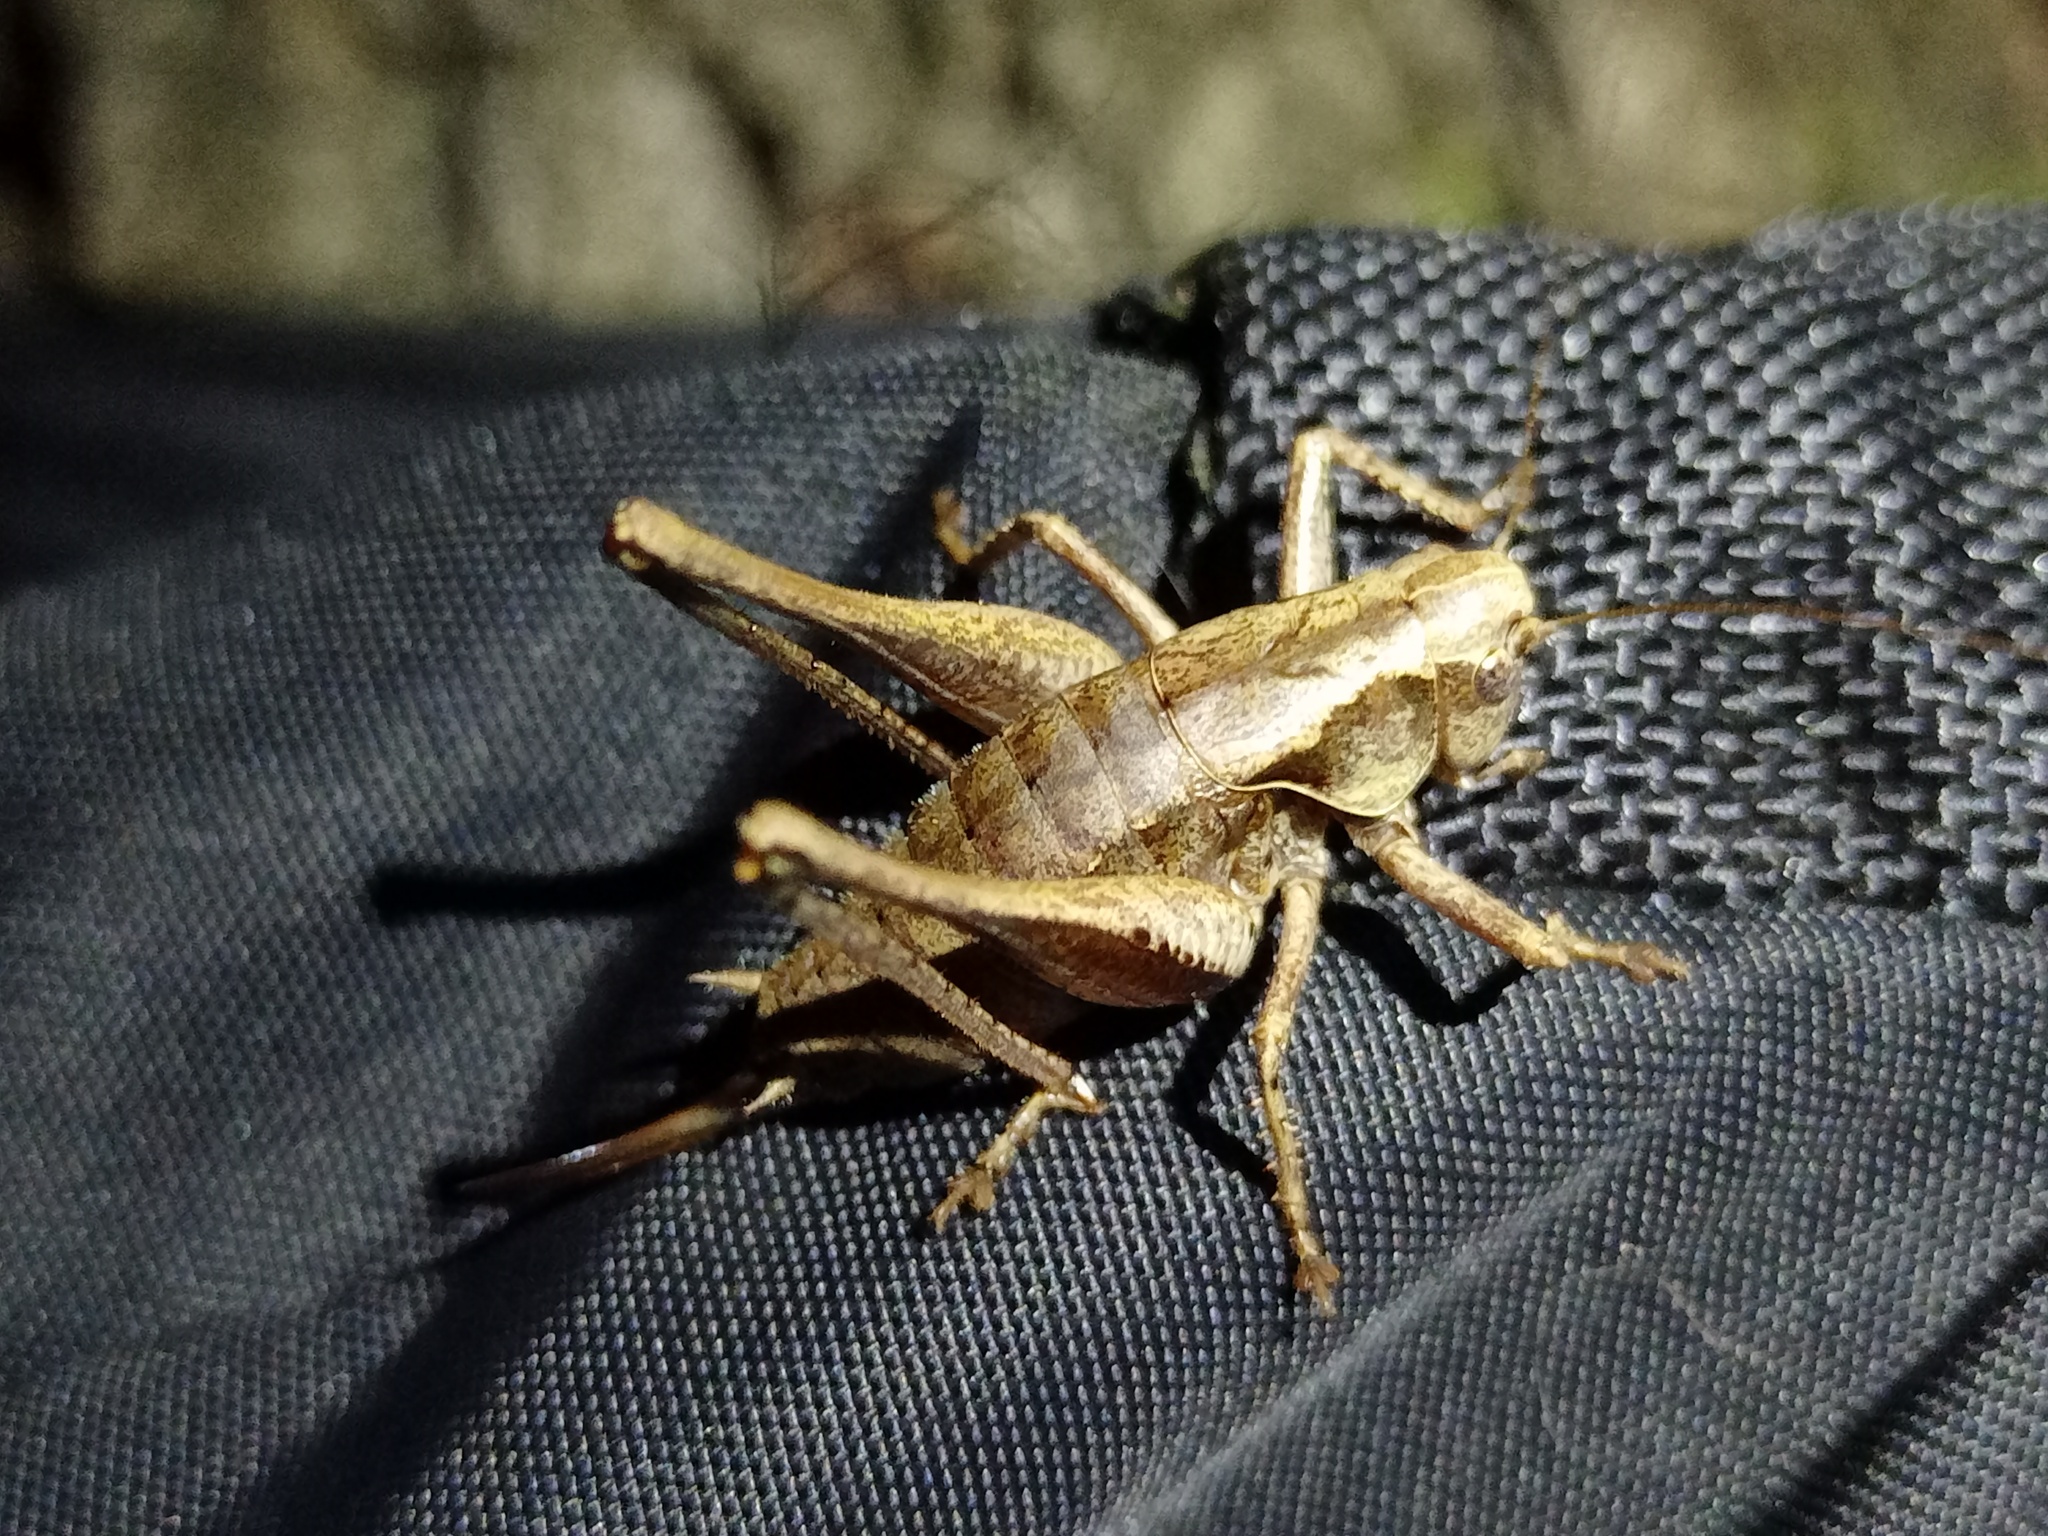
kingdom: Animalia
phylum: Arthropoda
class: Insecta
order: Orthoptera
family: Tettigoniidae
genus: Pholidoptera
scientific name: Pholidoptera griseoaptera
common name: Dark bush-cricket
